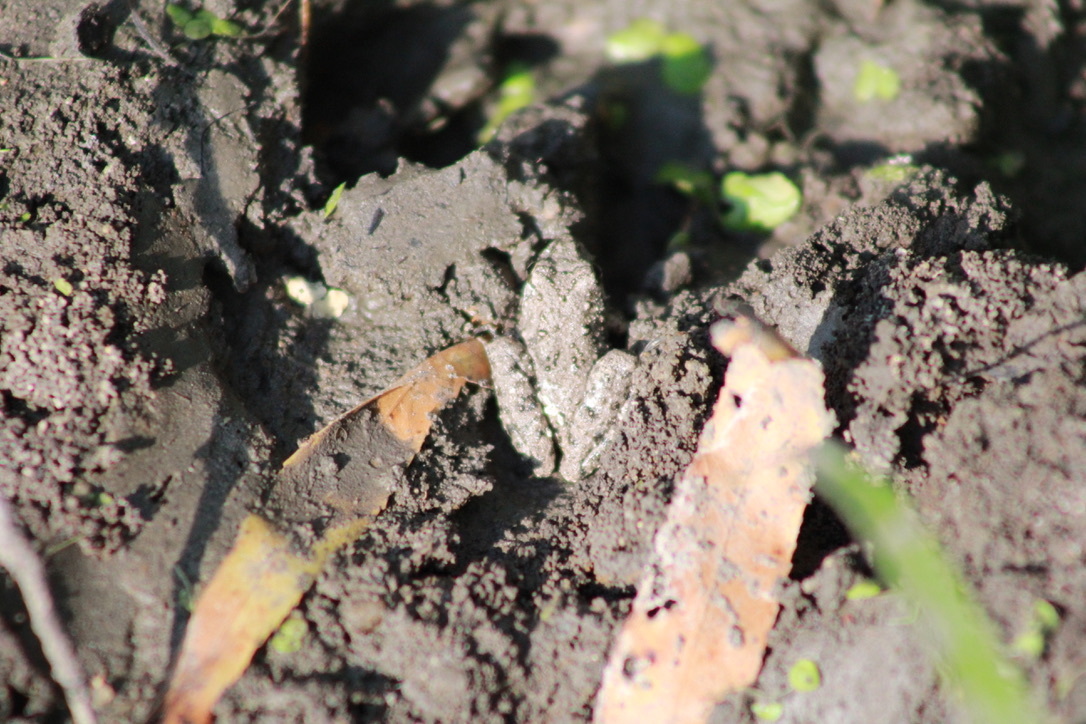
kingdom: Animalia
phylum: Chordata
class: Amphibia
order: Anura
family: Hylidae
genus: Acris
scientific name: Acris blanchardi
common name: Blanchard's cricket frog
